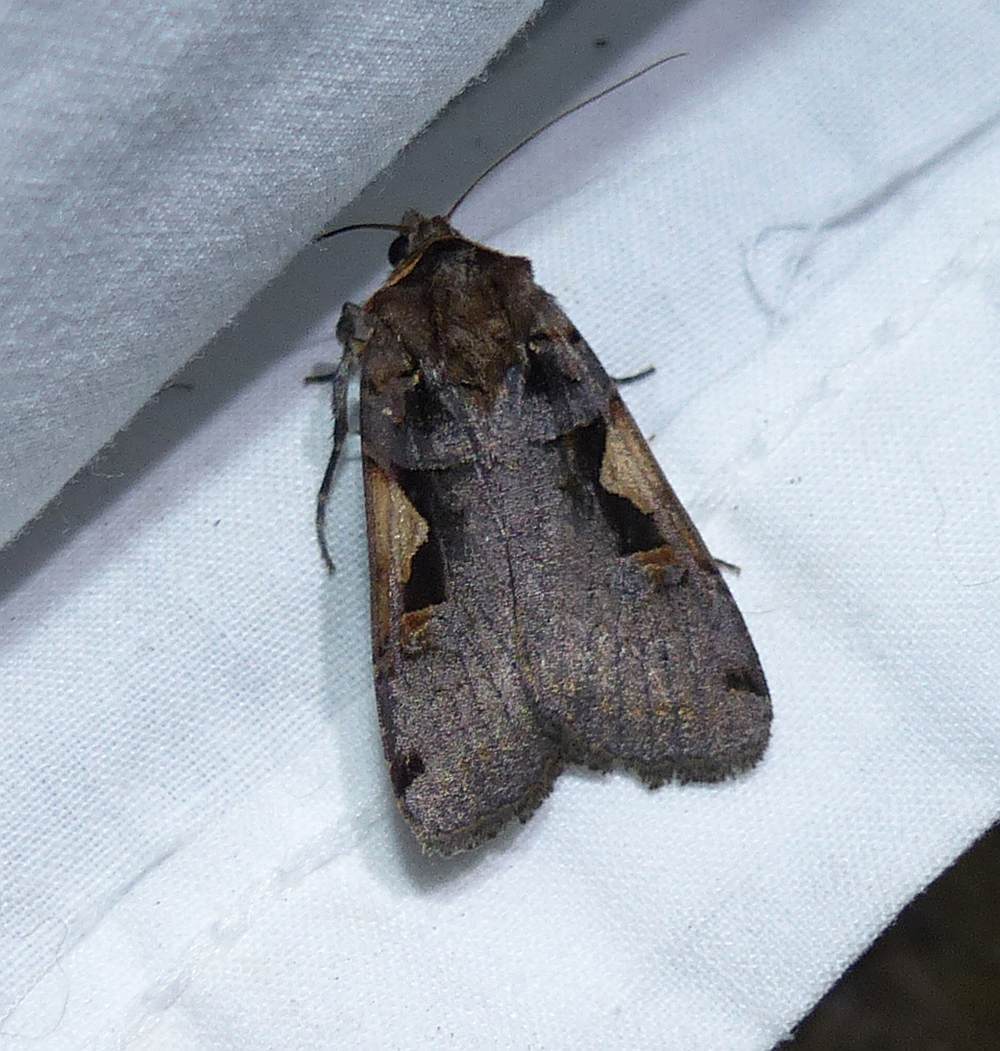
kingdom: Animalia
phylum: Arthropoda
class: Insecta
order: Lepidoptera
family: Noctuidae
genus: Xestia
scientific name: Xestia
